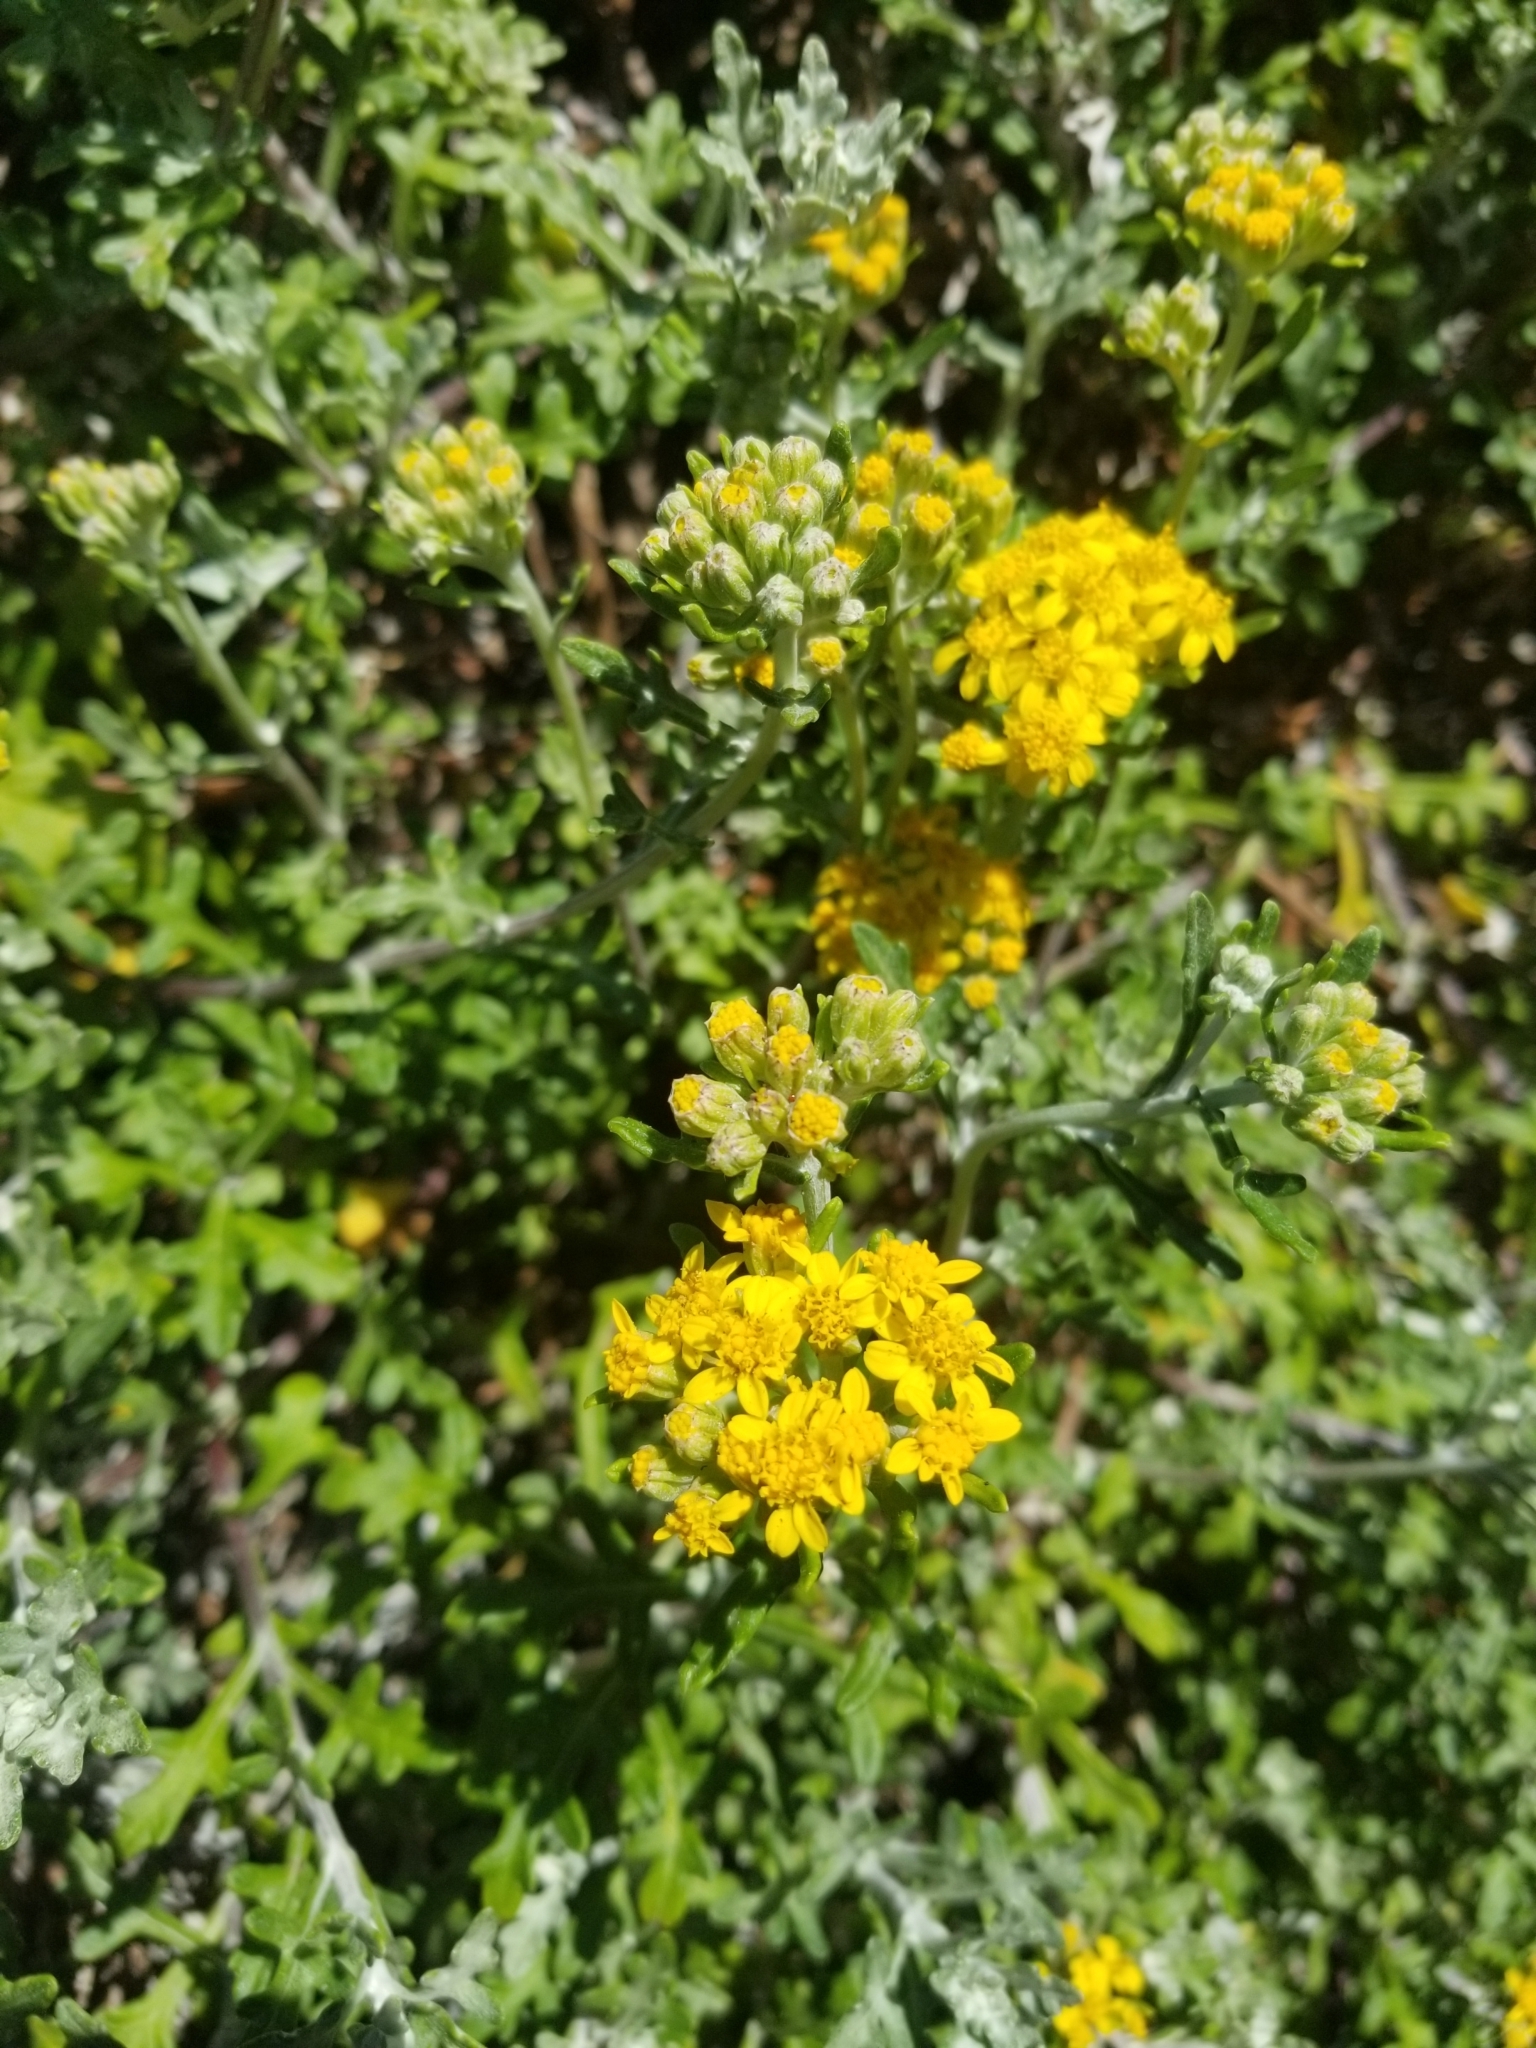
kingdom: Plantae
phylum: Tracheophyta
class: Magnoliopsida
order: Asterales
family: Asteraceae
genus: Eriophyllum
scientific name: Eriophyllum staechadifolium
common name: Lizardtail
